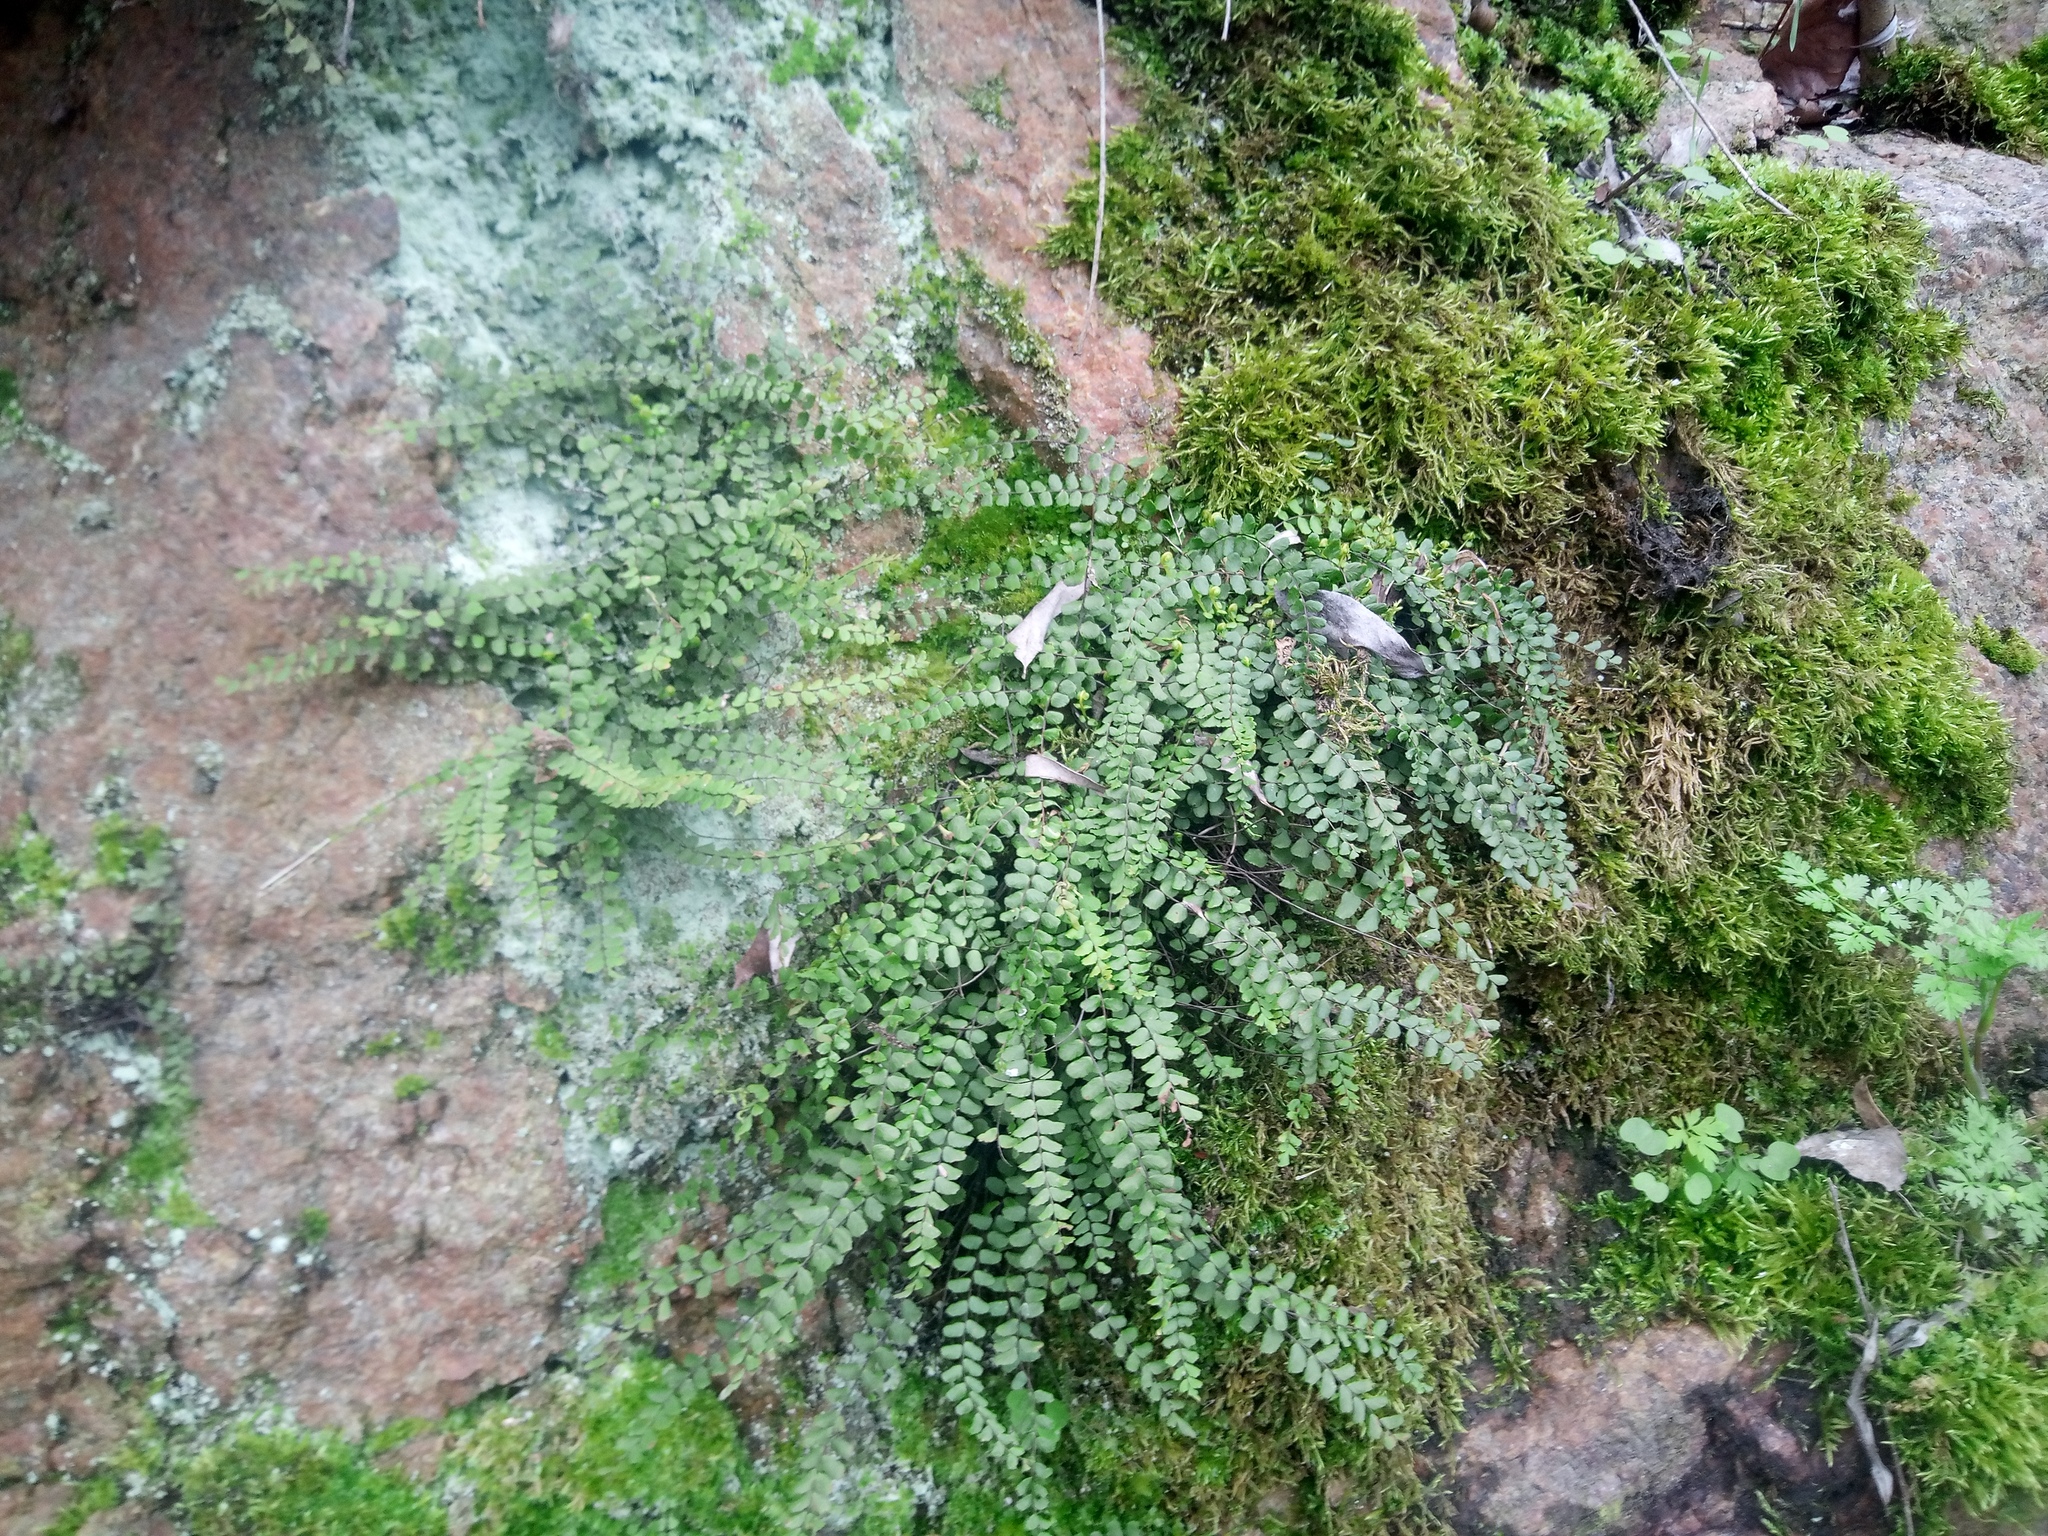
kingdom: Plantae
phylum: Tracheophyta
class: Polypodiopsida
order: Polypodiales
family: Aspleniaceae
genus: Asplenium
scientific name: Asplenium trichomanes
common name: Maidenhair spleenwort
